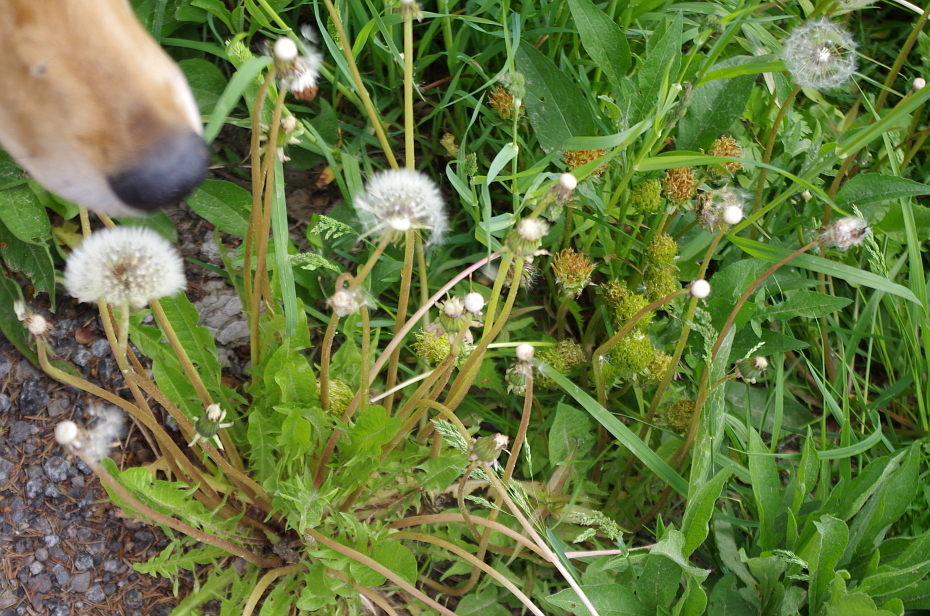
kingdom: Bacteria
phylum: Firmicutes
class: Bacilli
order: Acholeplasmatales
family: Acholeplasmataceae
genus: Phytoplasma
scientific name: Phytoplasma
